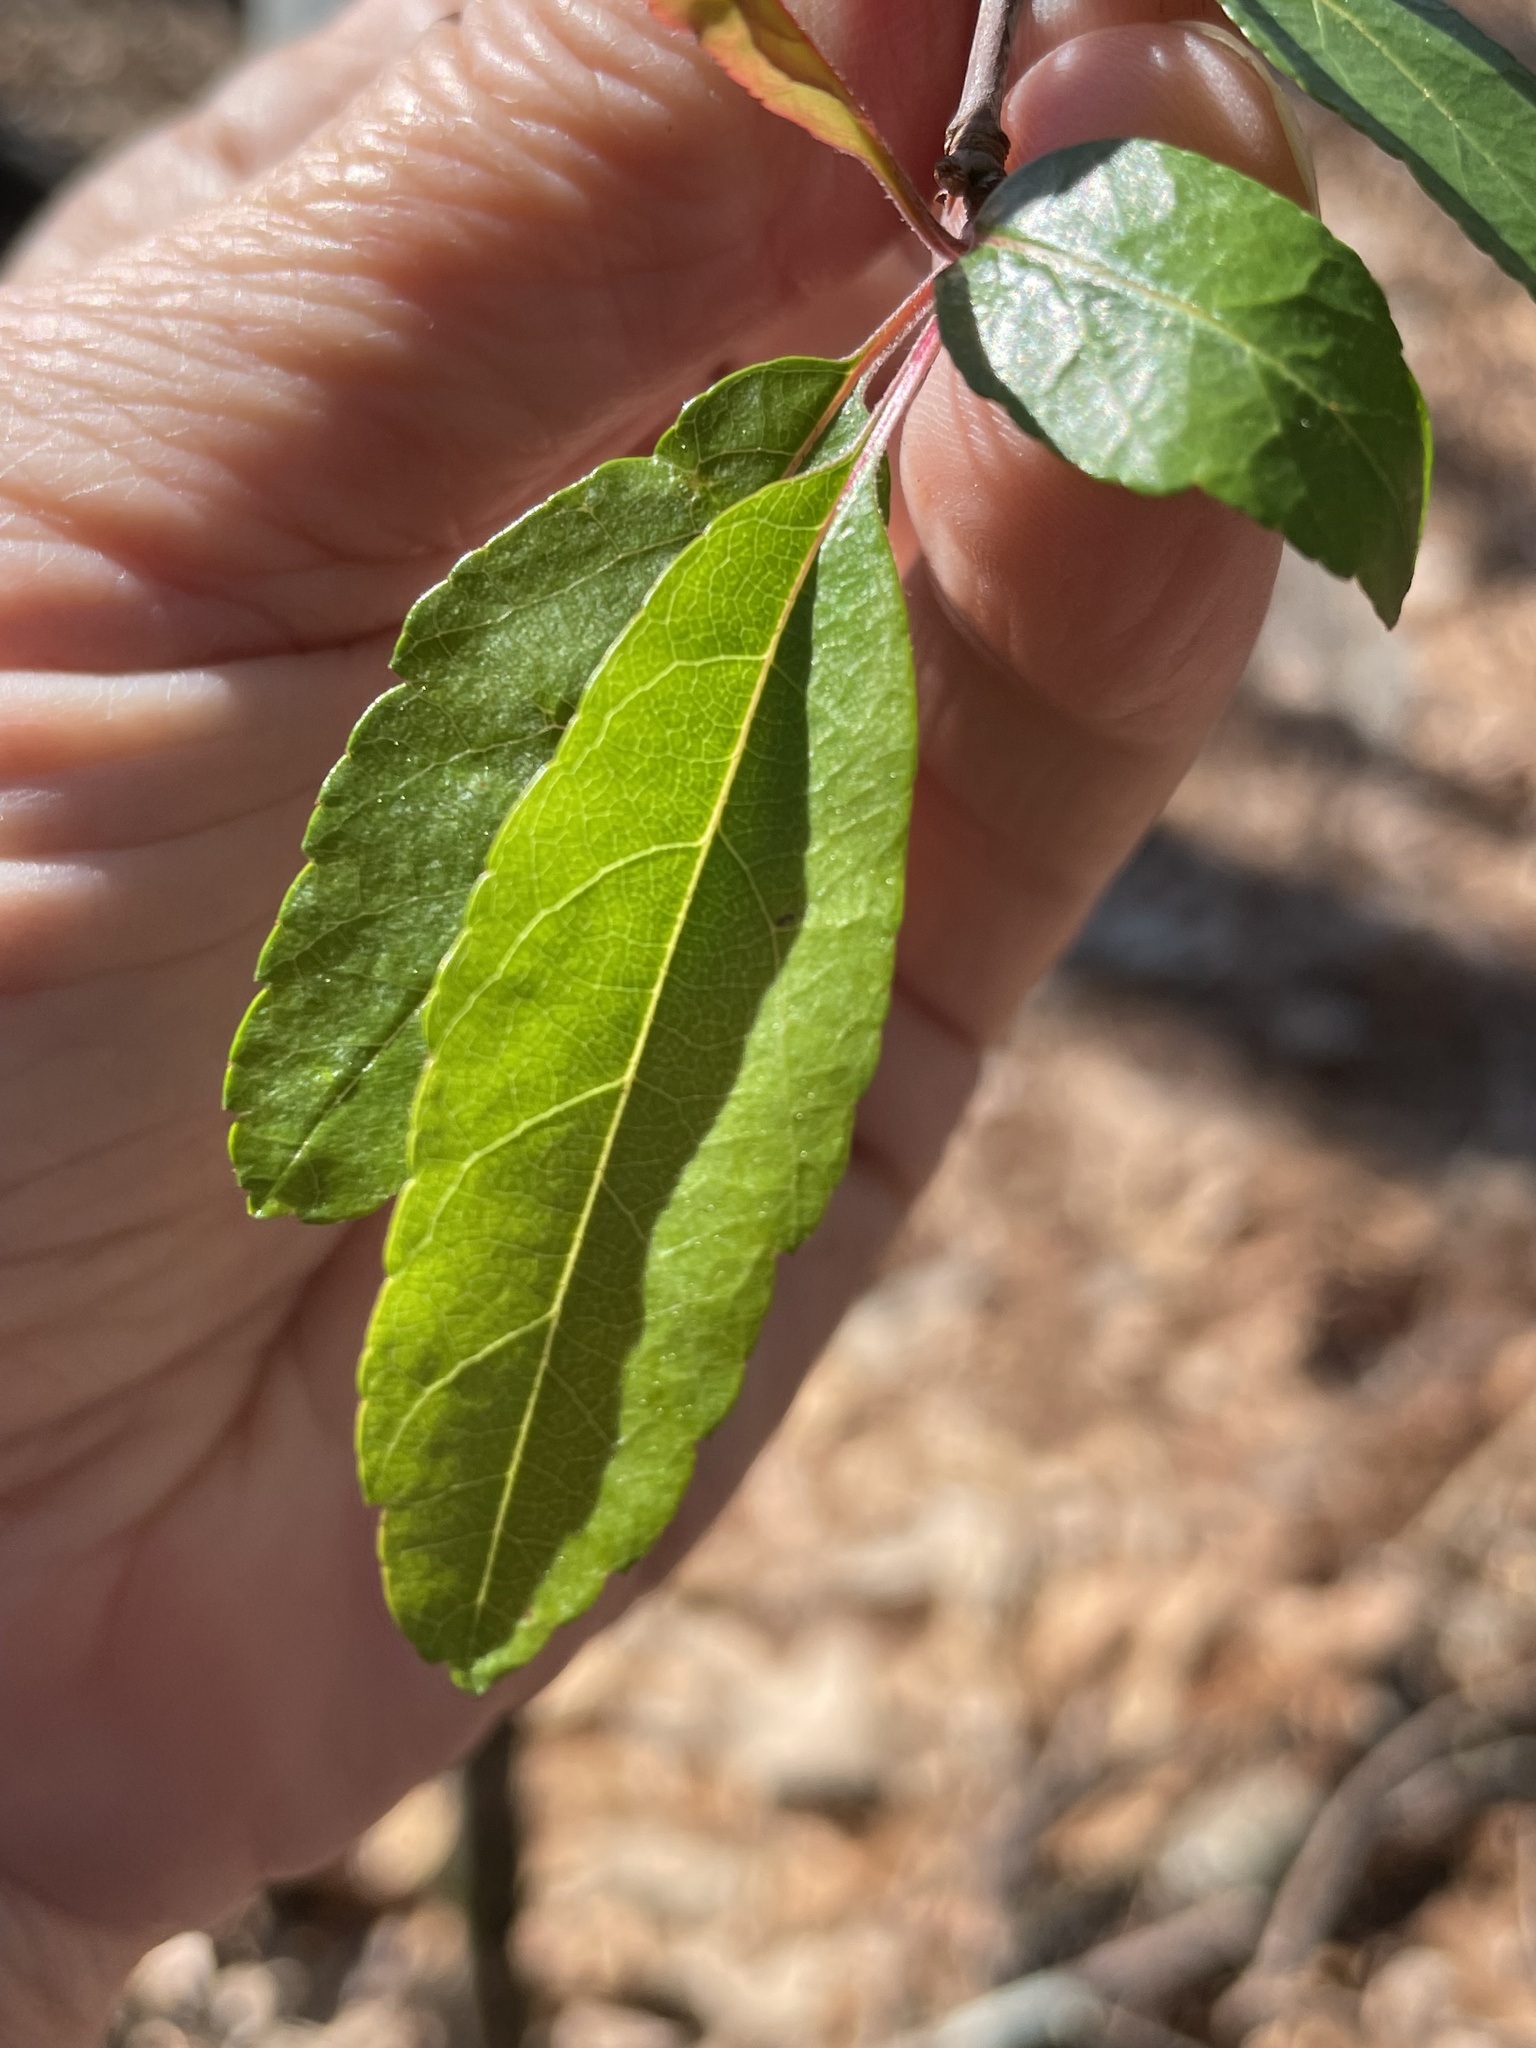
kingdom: Plantae
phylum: Tracheophyta
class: Magnoliopsida
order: Rosales
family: Rosaceae
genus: Malus
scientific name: Malus angustifolia
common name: Southern crab apple
